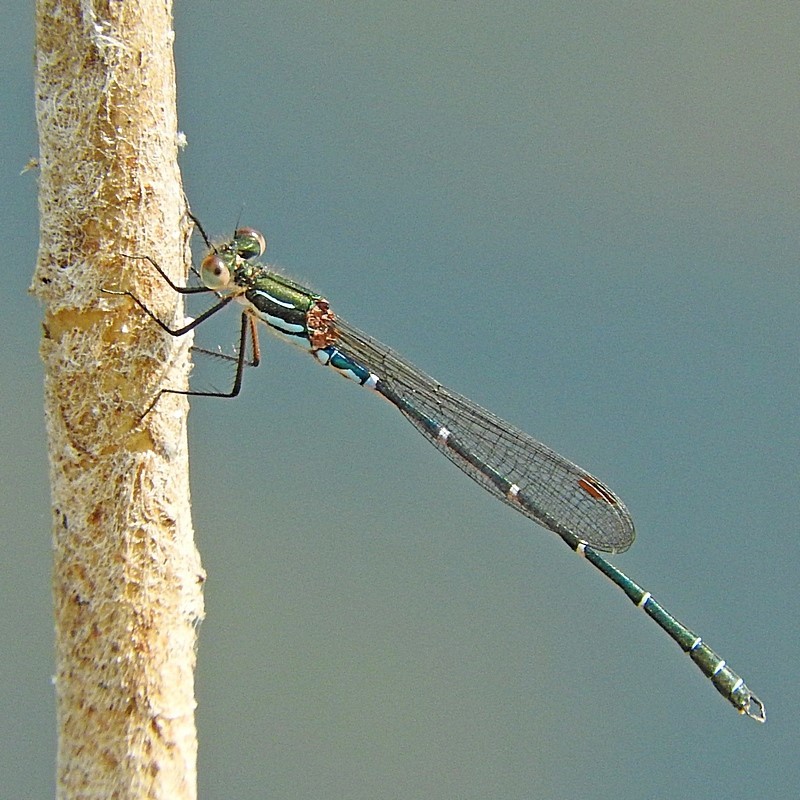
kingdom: Animalia
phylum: Arthropoda
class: Insecta
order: Odonata
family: Lestidae
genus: Austrolestes
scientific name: Austrolestes psyche
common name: Cup ringtail
